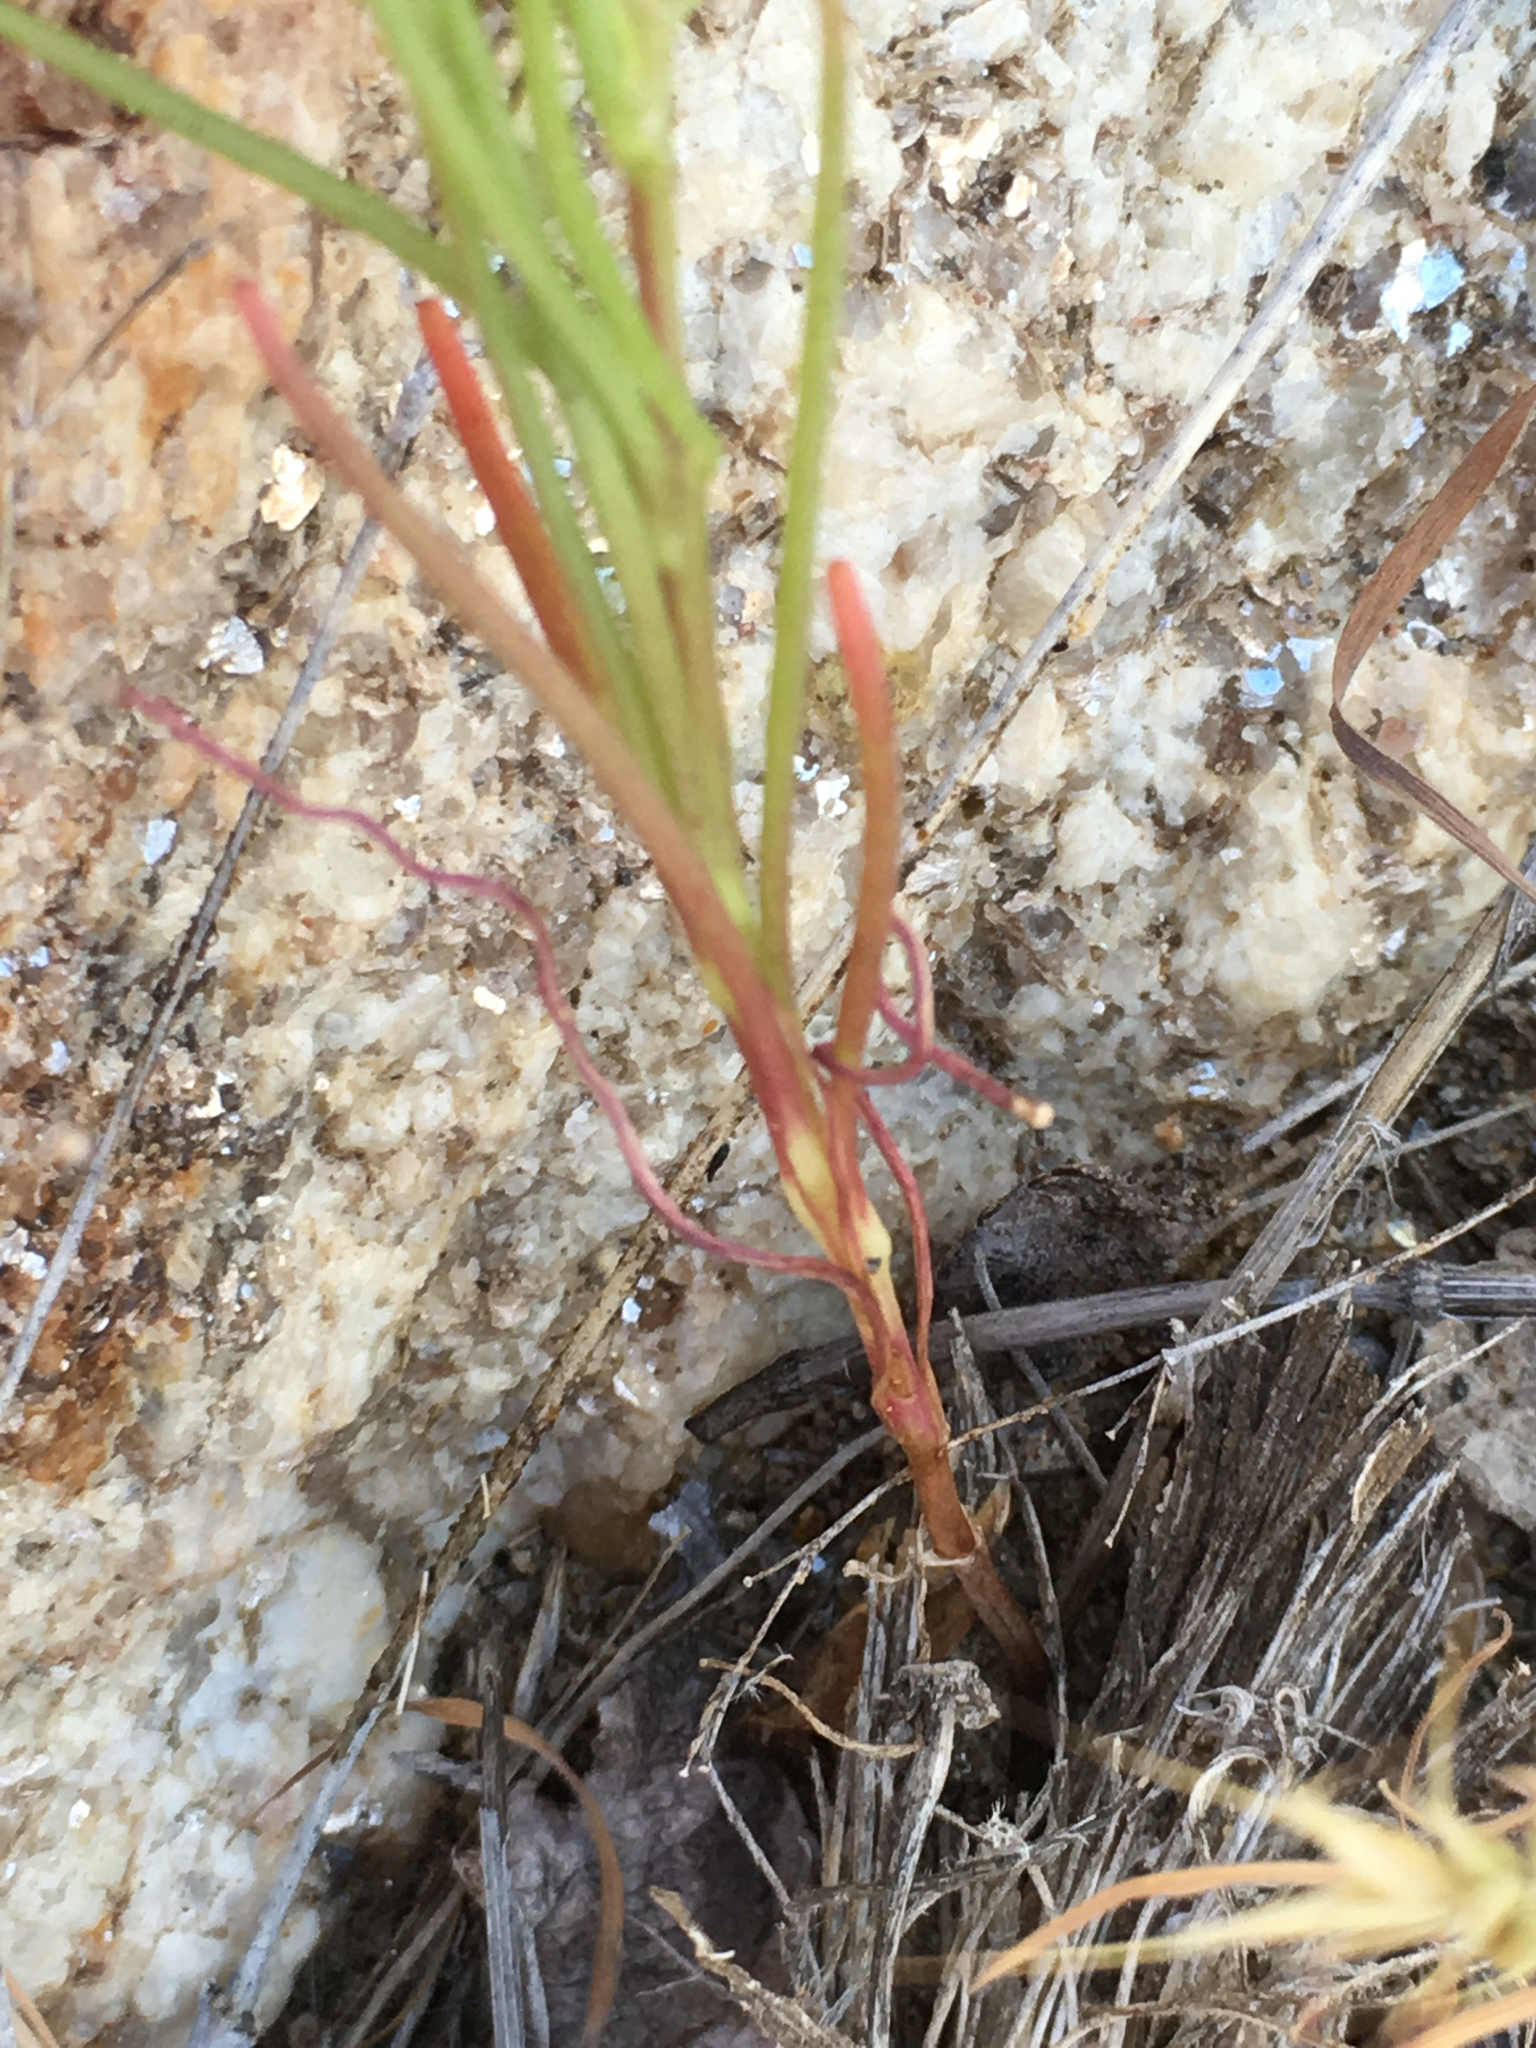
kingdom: Plantae
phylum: Tracheophyta
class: Magnoliopsida
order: Asterales
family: Asteraceae
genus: Chaenactis
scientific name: Chaenactis fremontii
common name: Fremont pincushion
